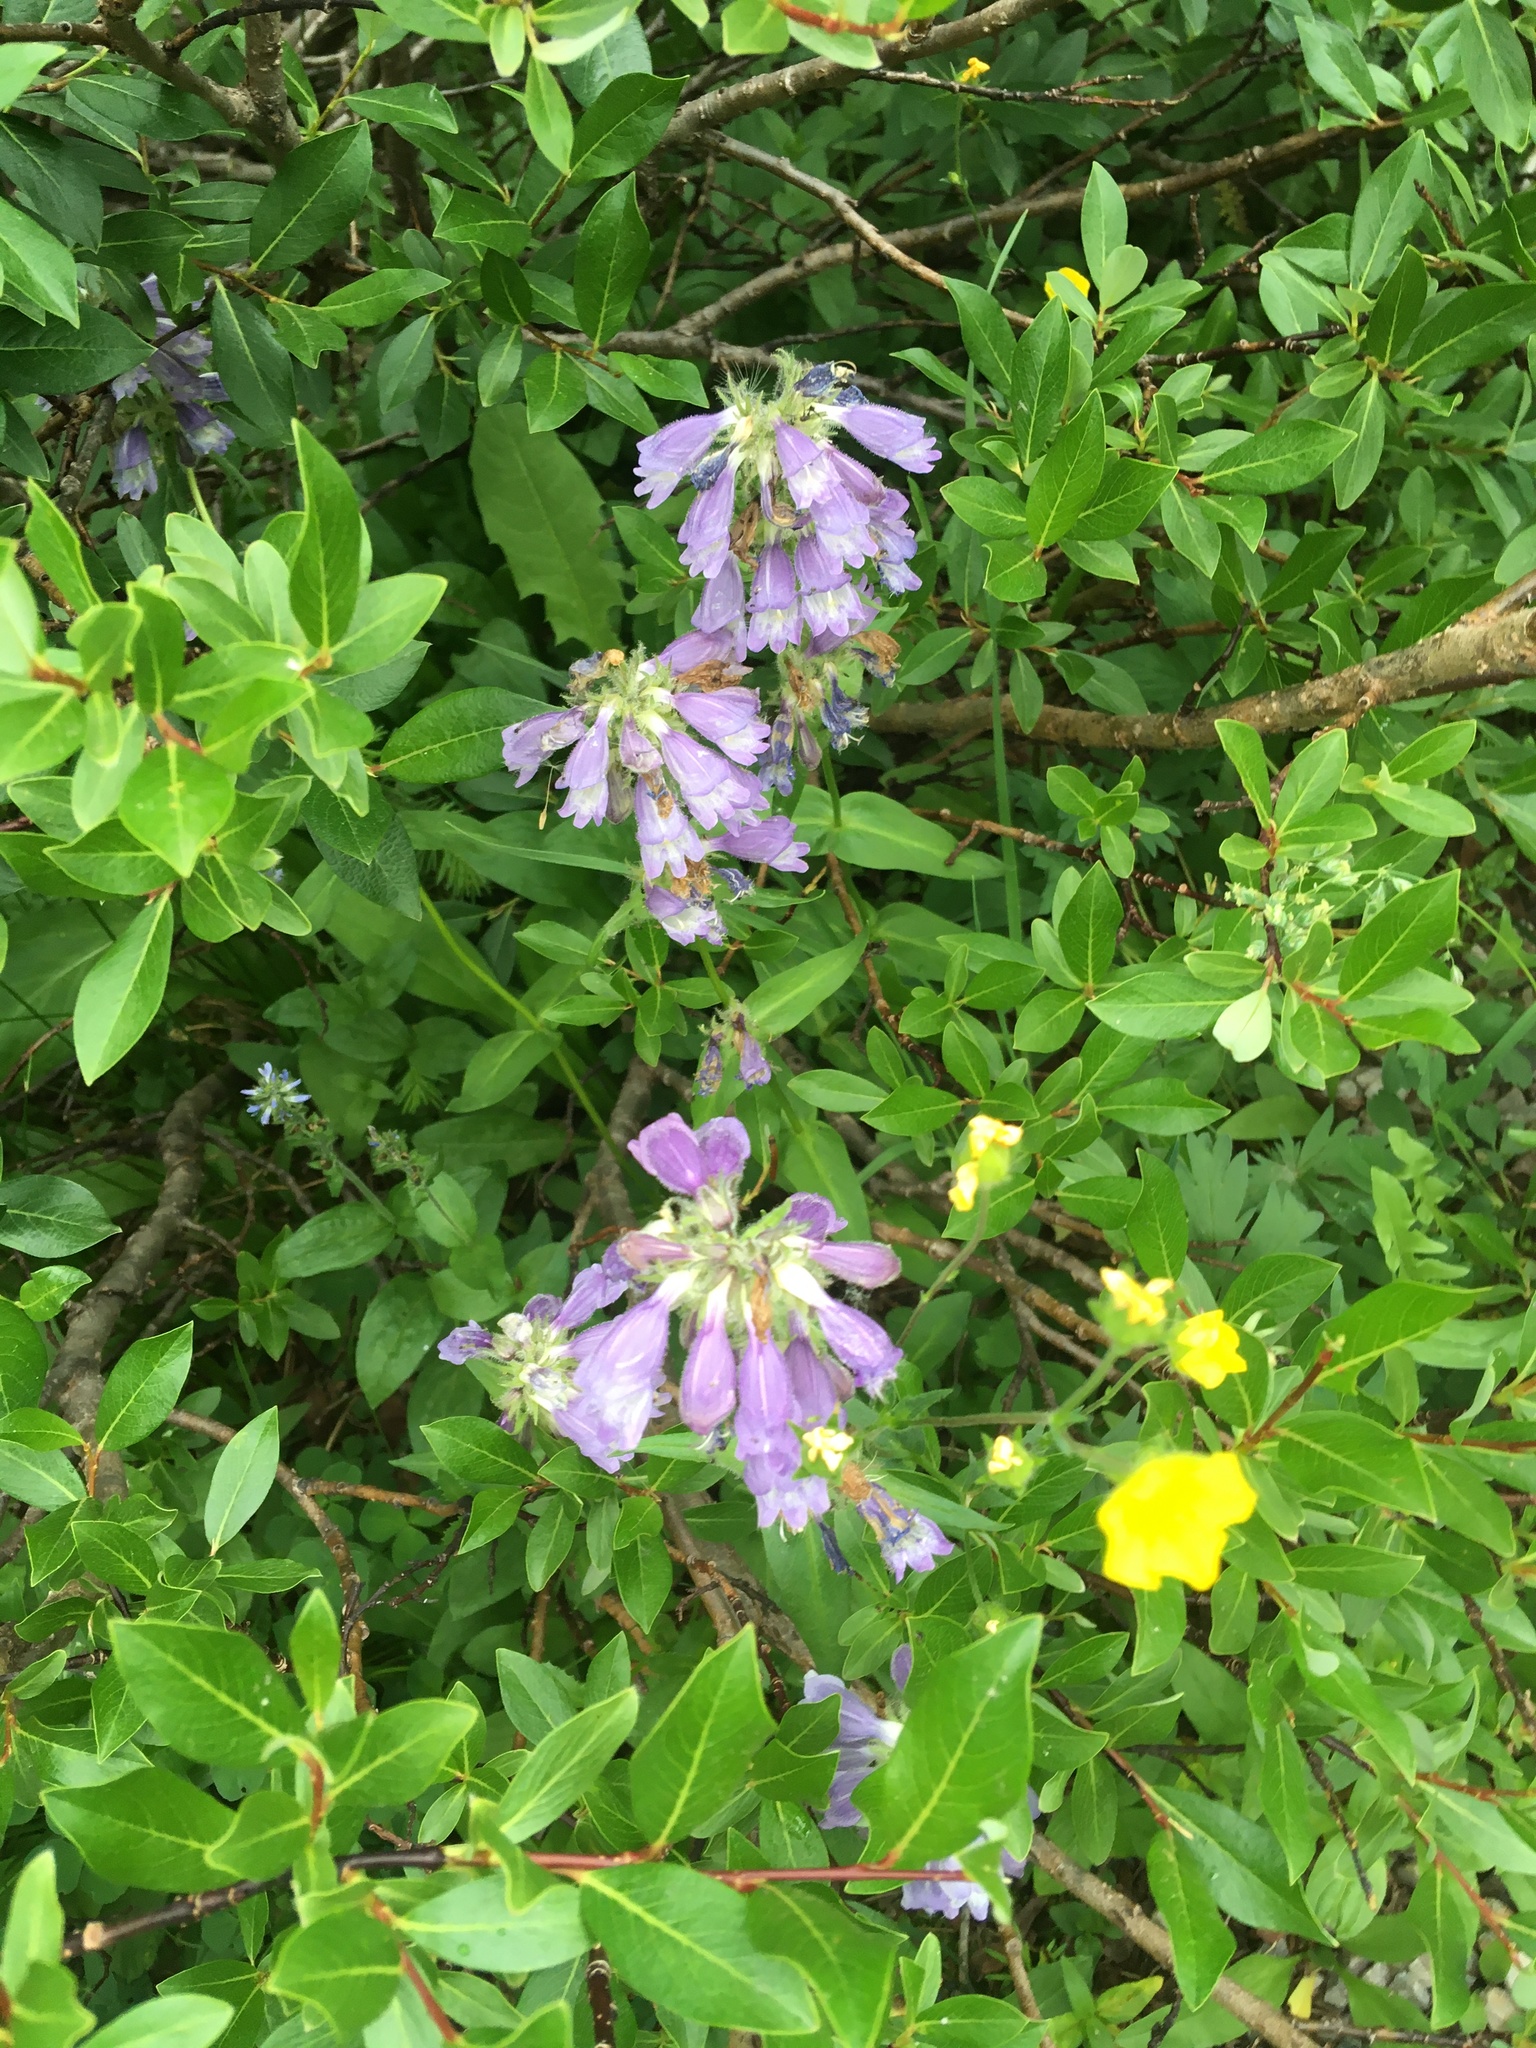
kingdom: Plantae
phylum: Tracheophyta
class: Magnoliopsida
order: Lamiales
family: Plantaginaceae
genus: Penstemon
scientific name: Penstemon whippleanus
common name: Whipple's penstemon
